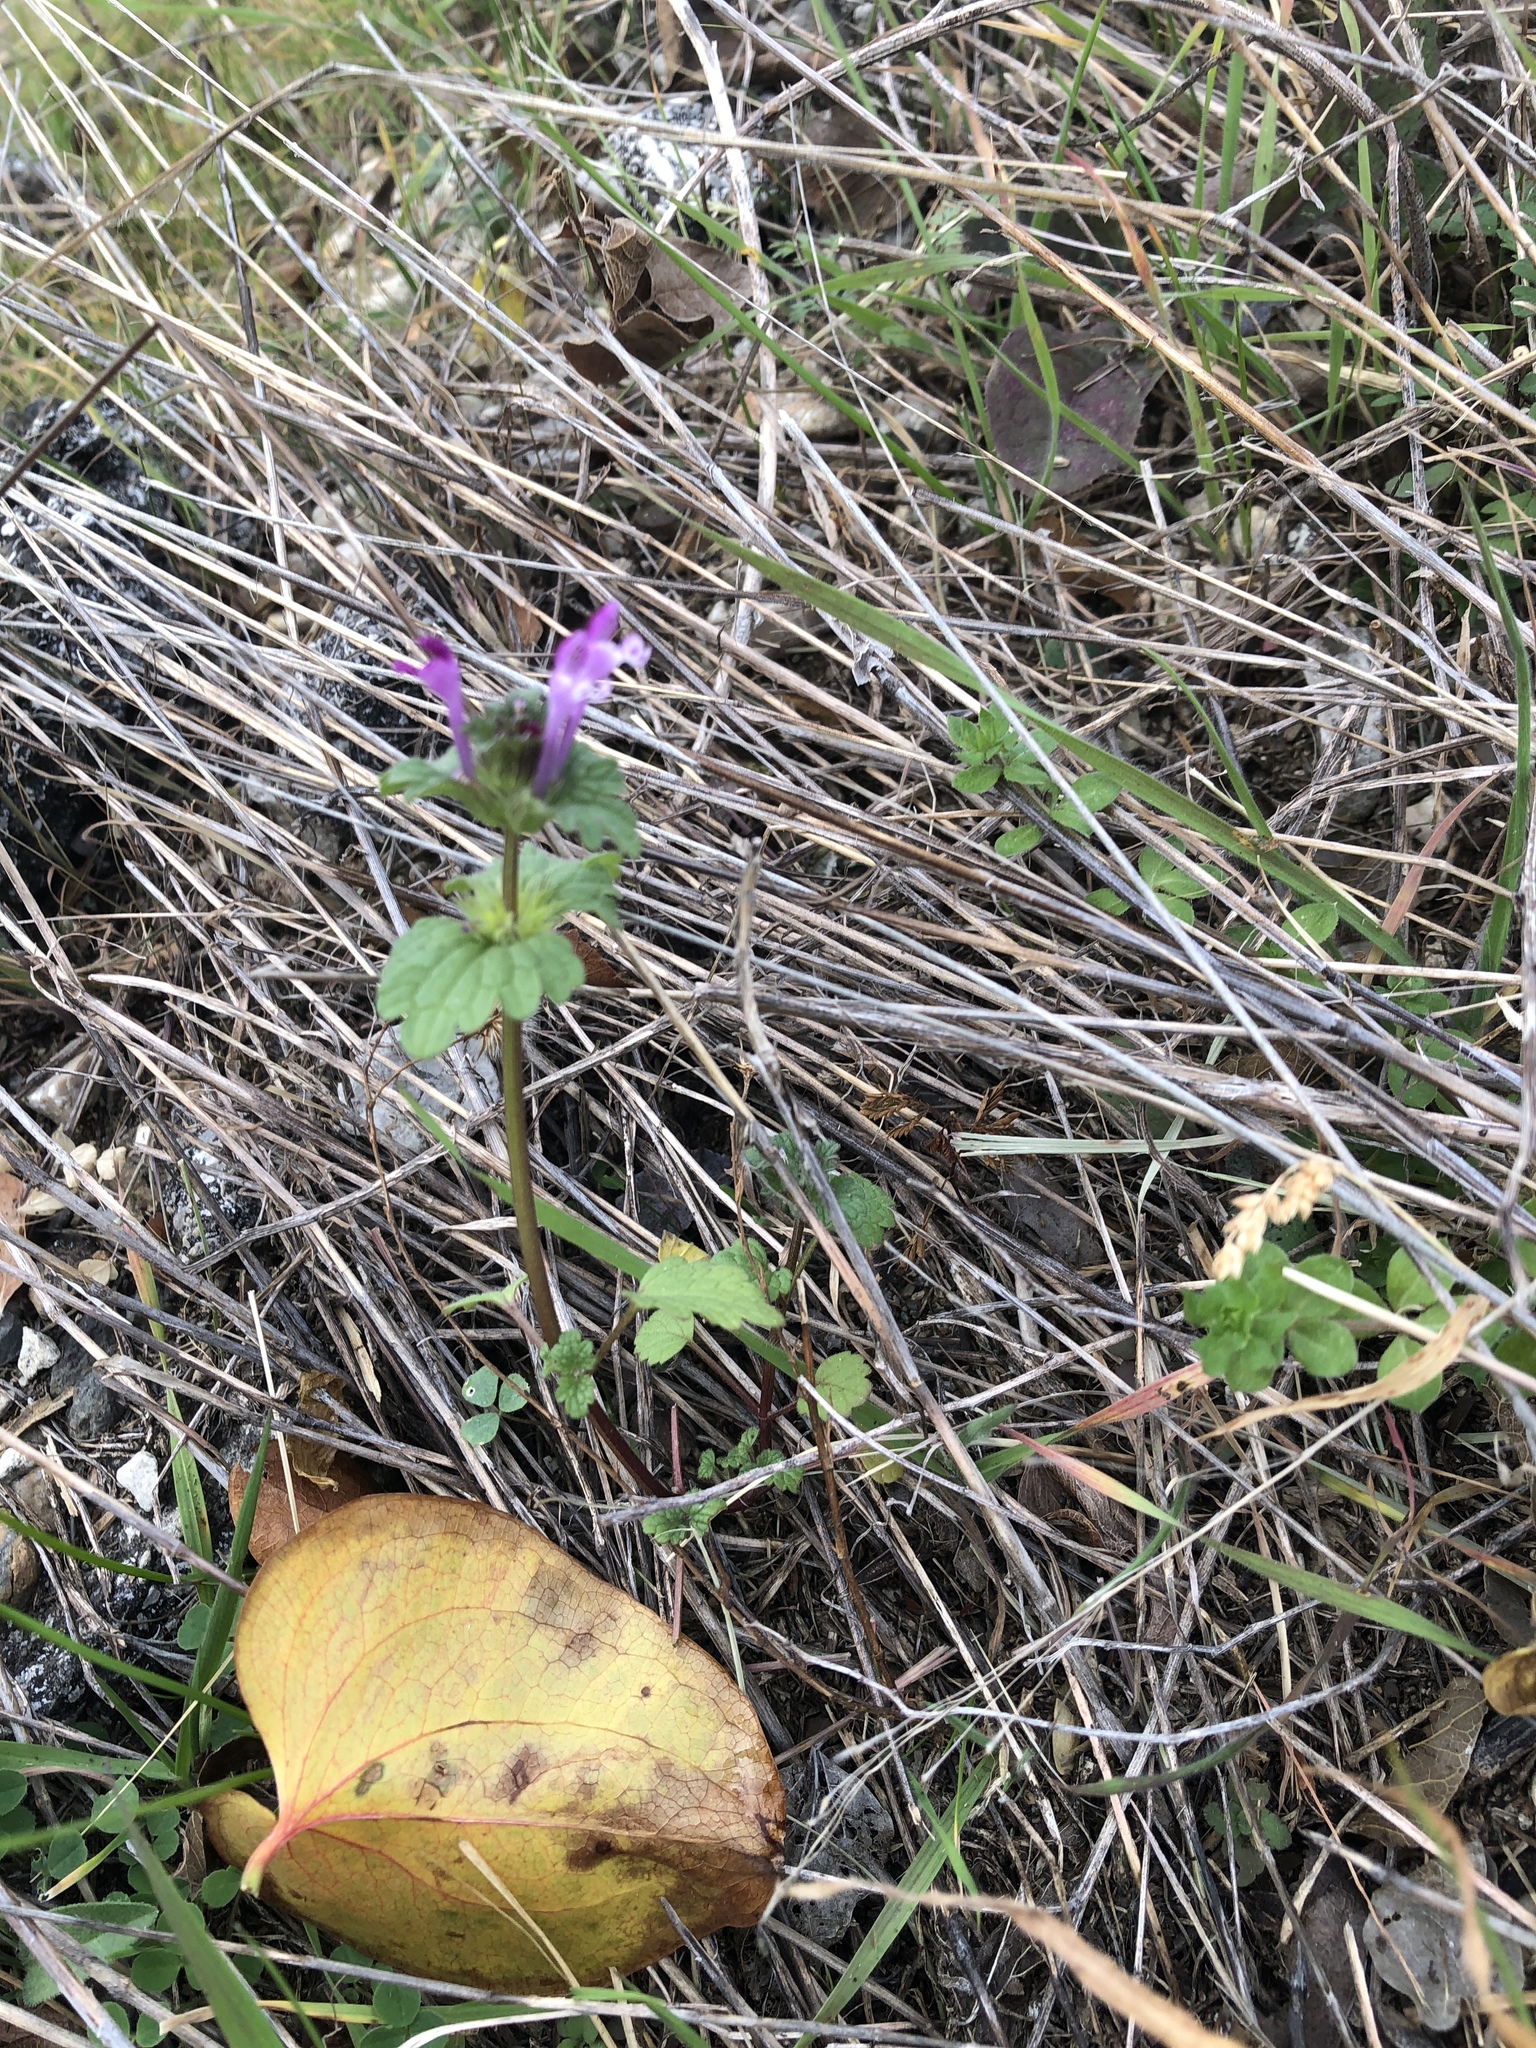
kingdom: Plantae
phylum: Tracheophyta
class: Magnoliopsida
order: Lamiales
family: Lamiaceae
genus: Lamium
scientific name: Lamium amplexicaule
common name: Henbit dead-nettle
